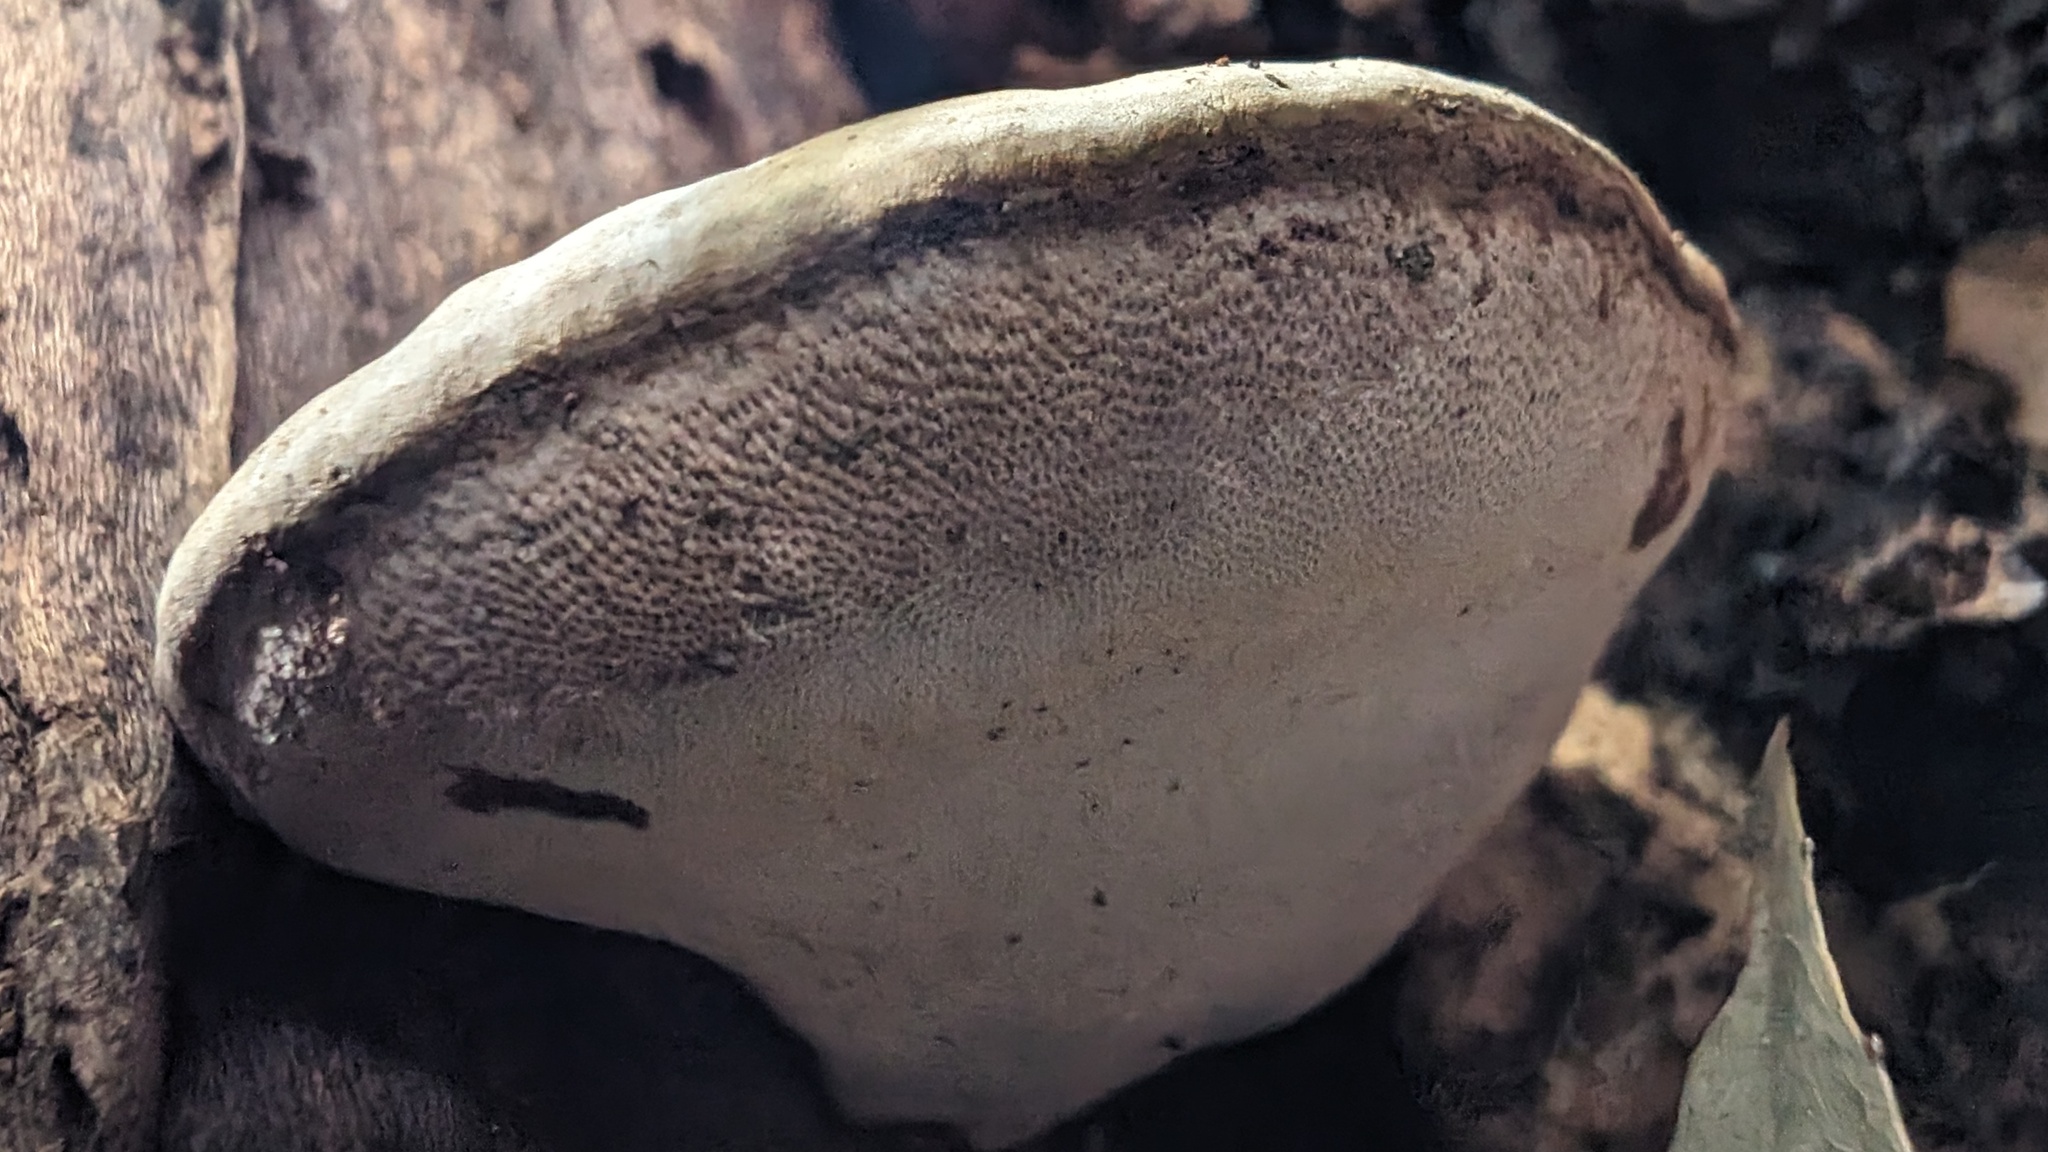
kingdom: Fungi
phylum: Basidiomycota
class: Agaricomycetes
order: Polyporales
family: Polyporaceae
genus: Ganoderma
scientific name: Ganoderma applanatum
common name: Artist's bracket
